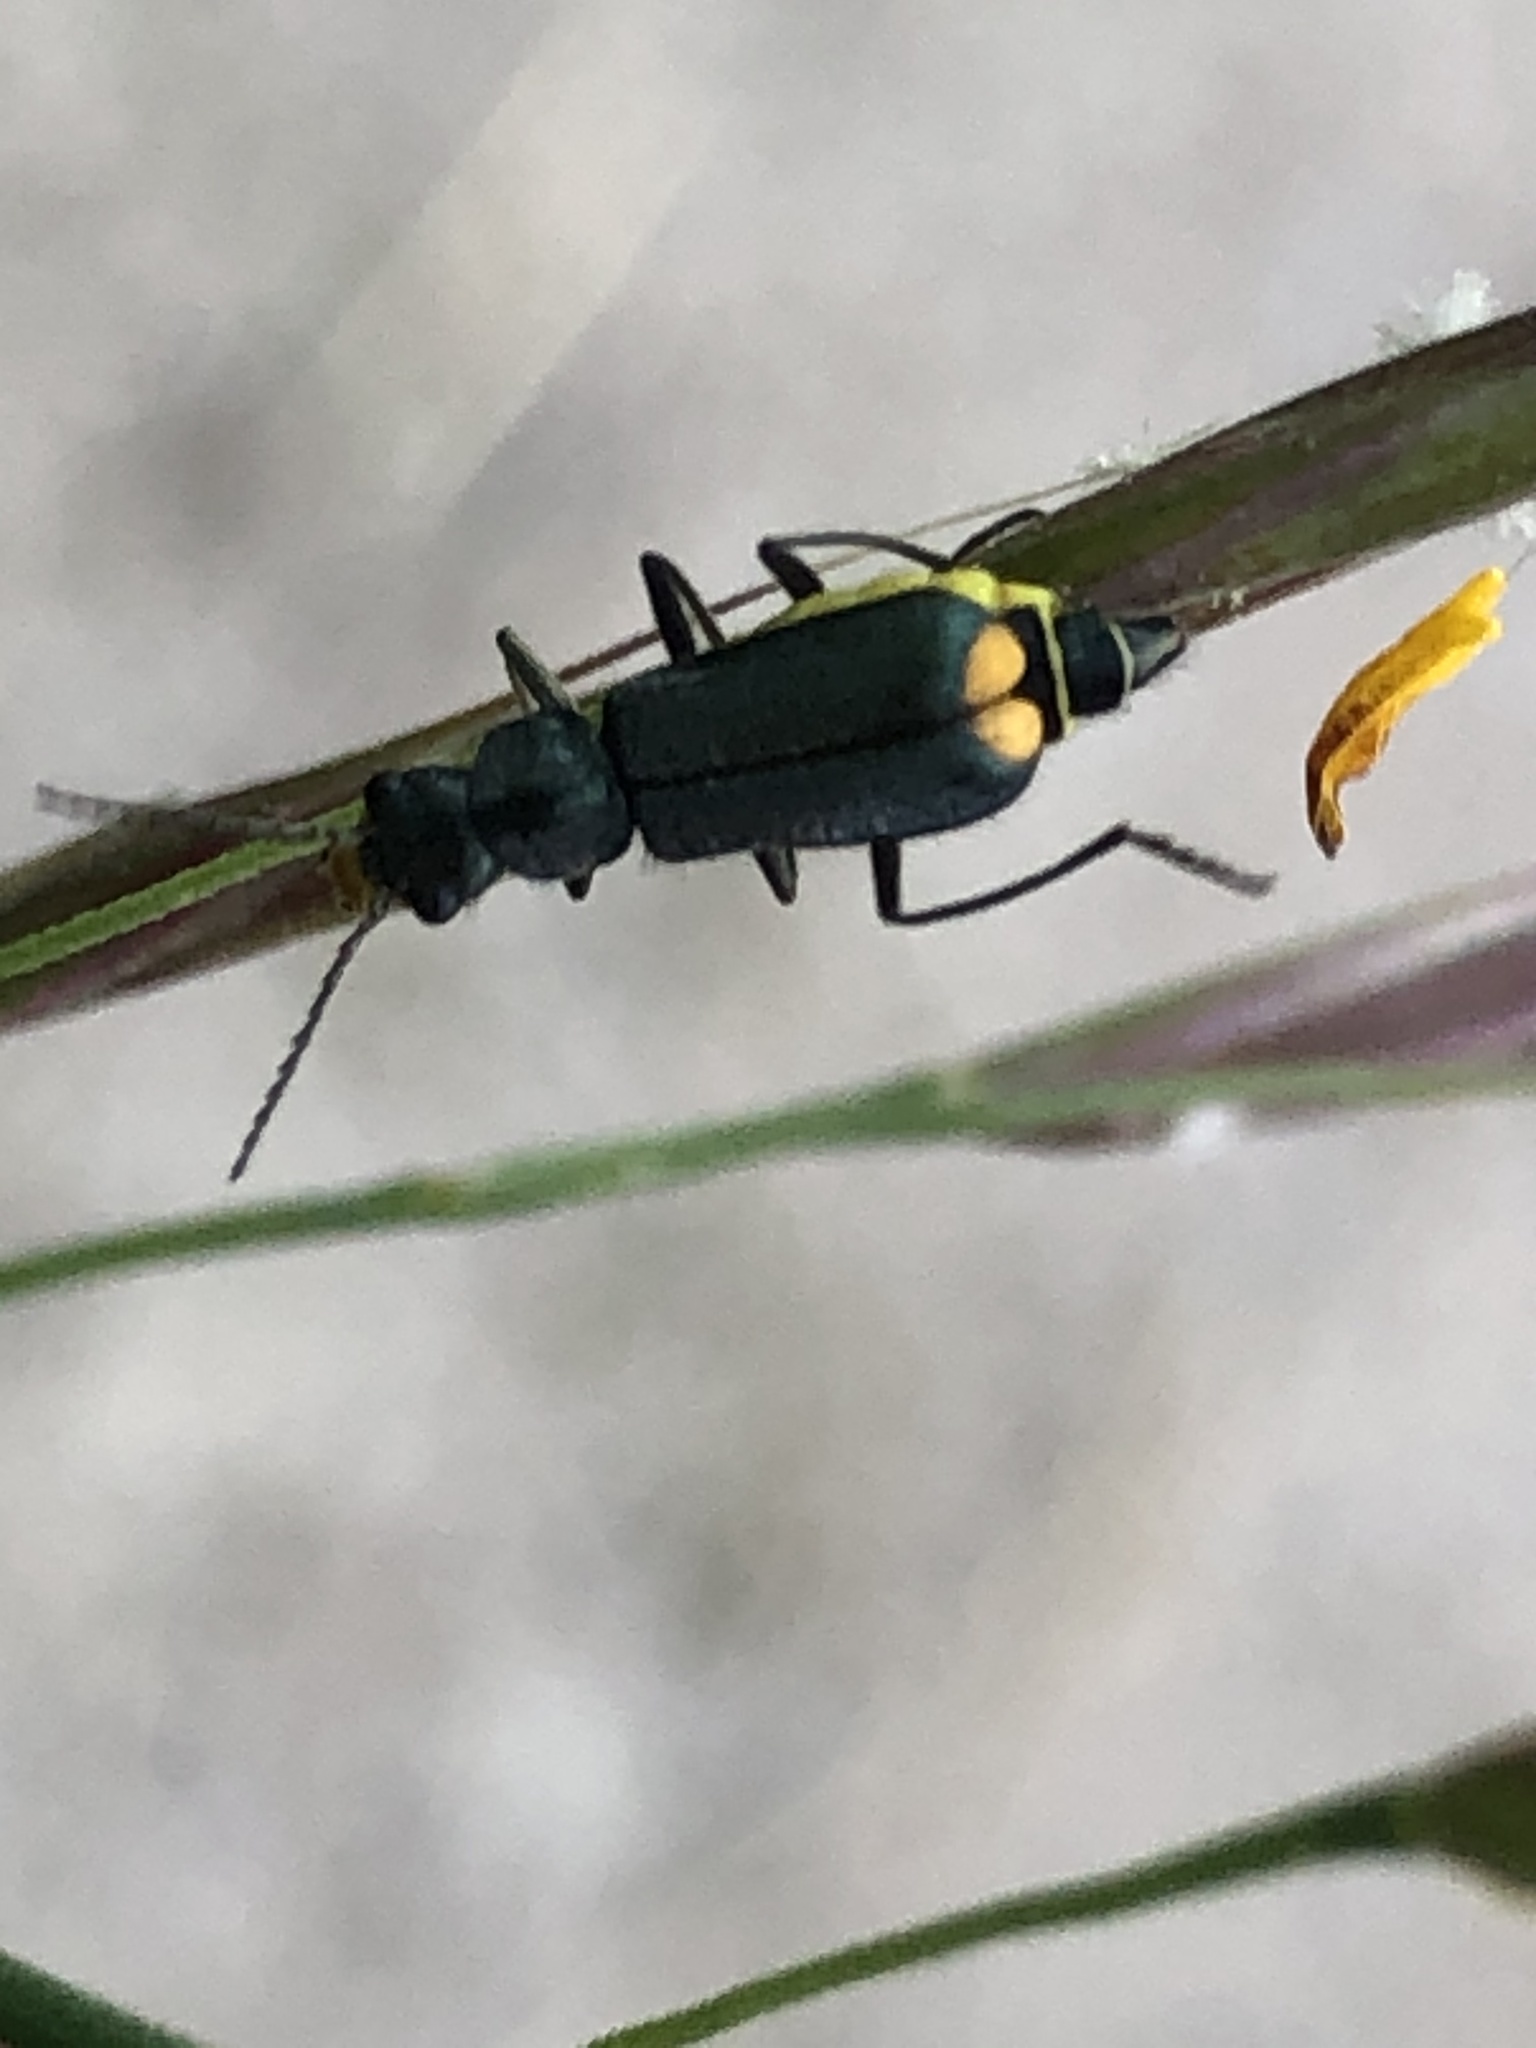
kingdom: Animalia
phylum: Arthropoda
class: Insecta
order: Coleoptera
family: Malachiidae
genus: Clanoptilus
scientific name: Clanoptilus marginellus
